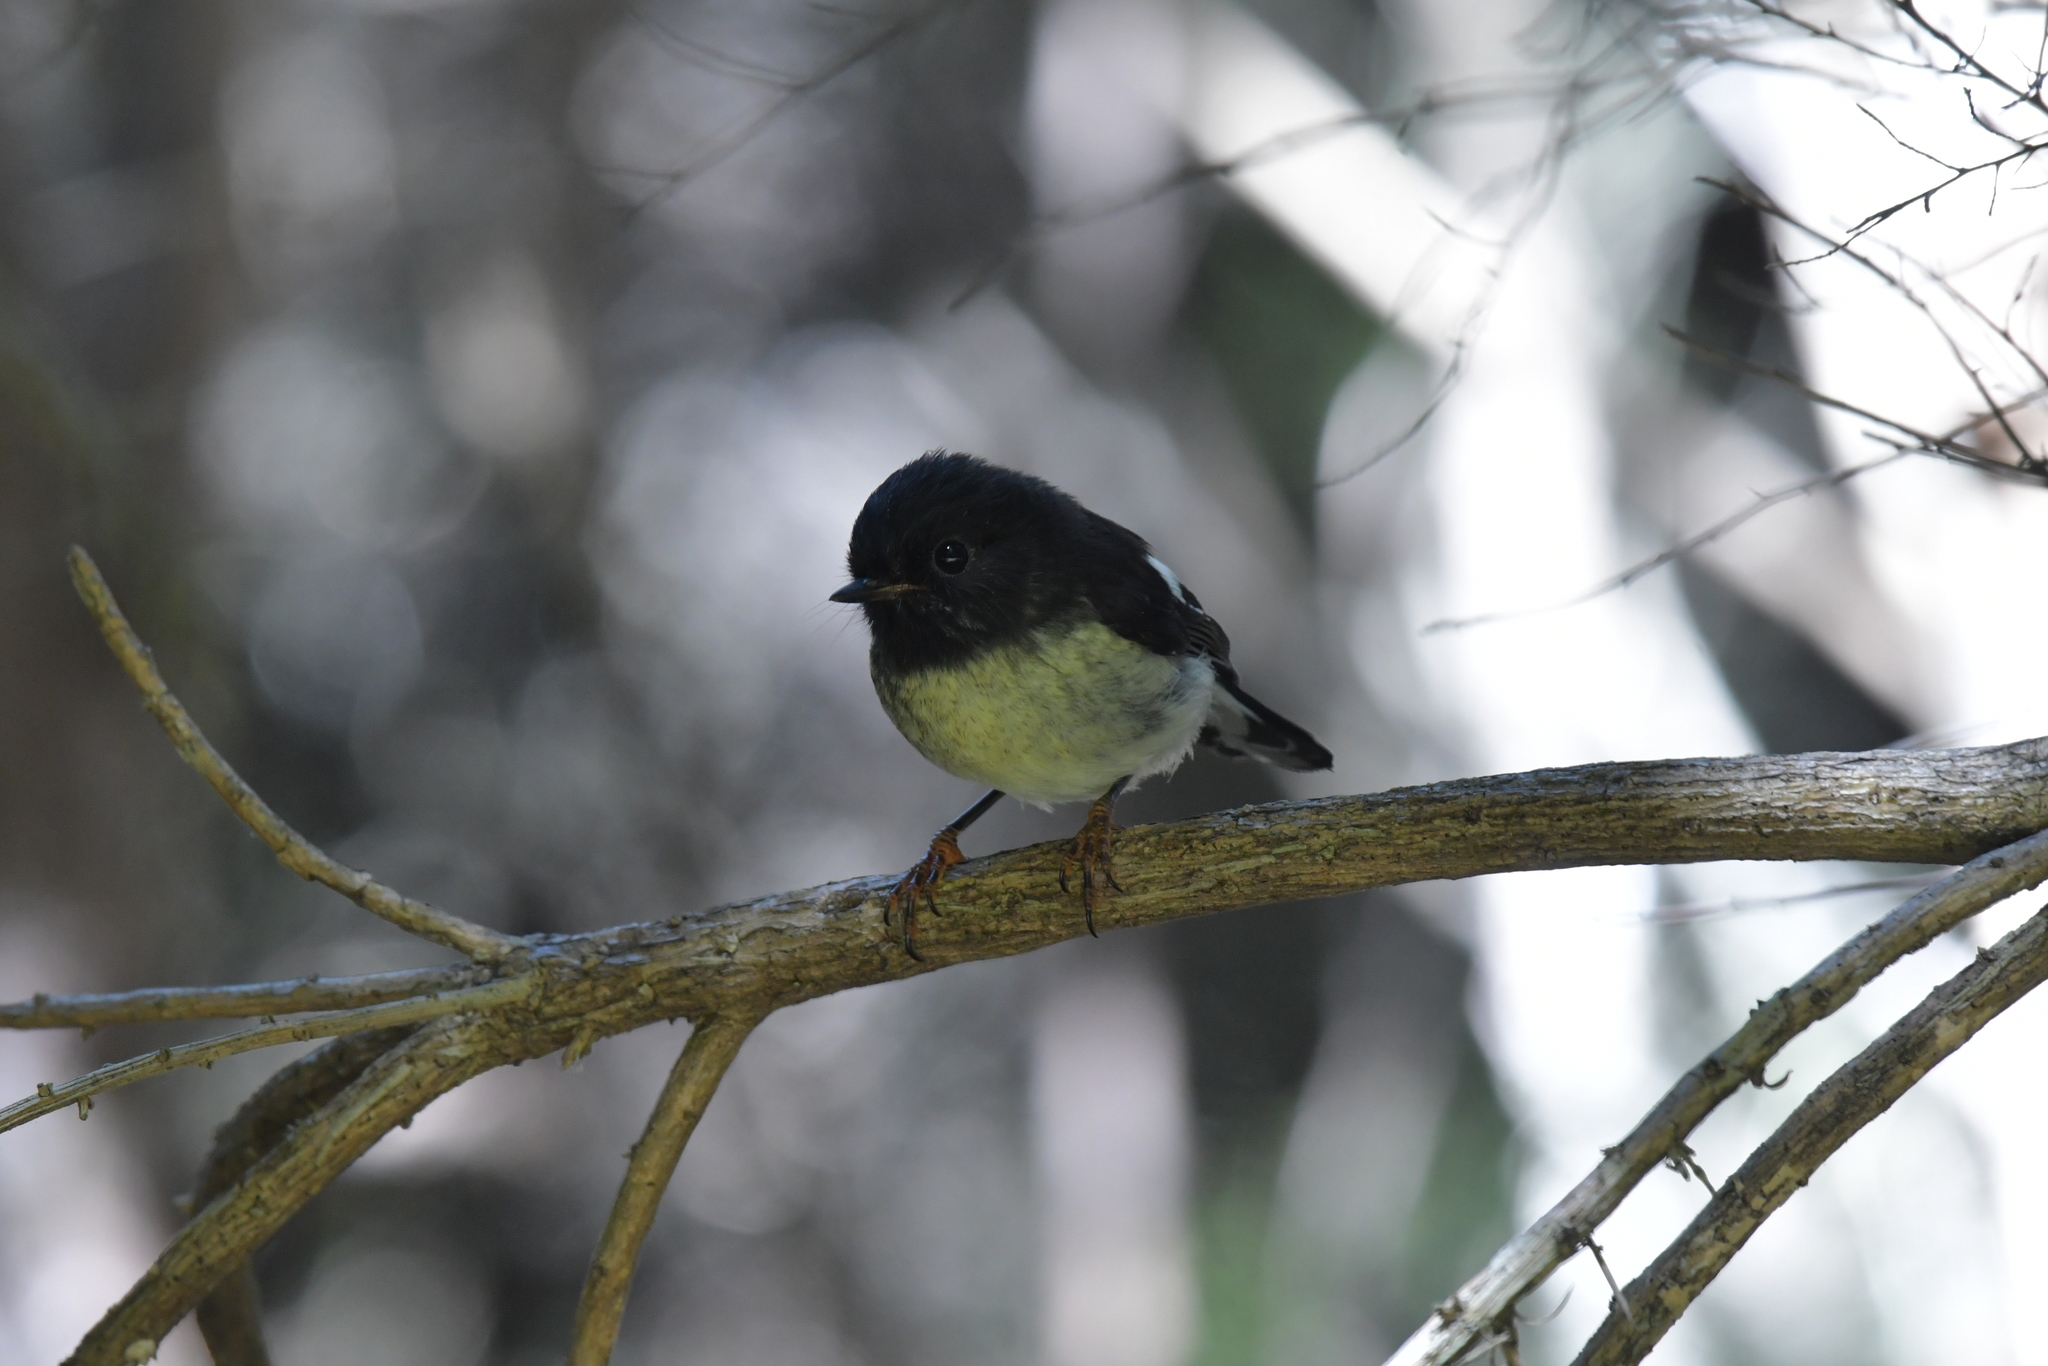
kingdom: Animalia
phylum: Chordata
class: Aves
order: Passeriformes
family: Petroicidae
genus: Petroica
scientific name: Petroica macrocephala
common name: Tomtit
